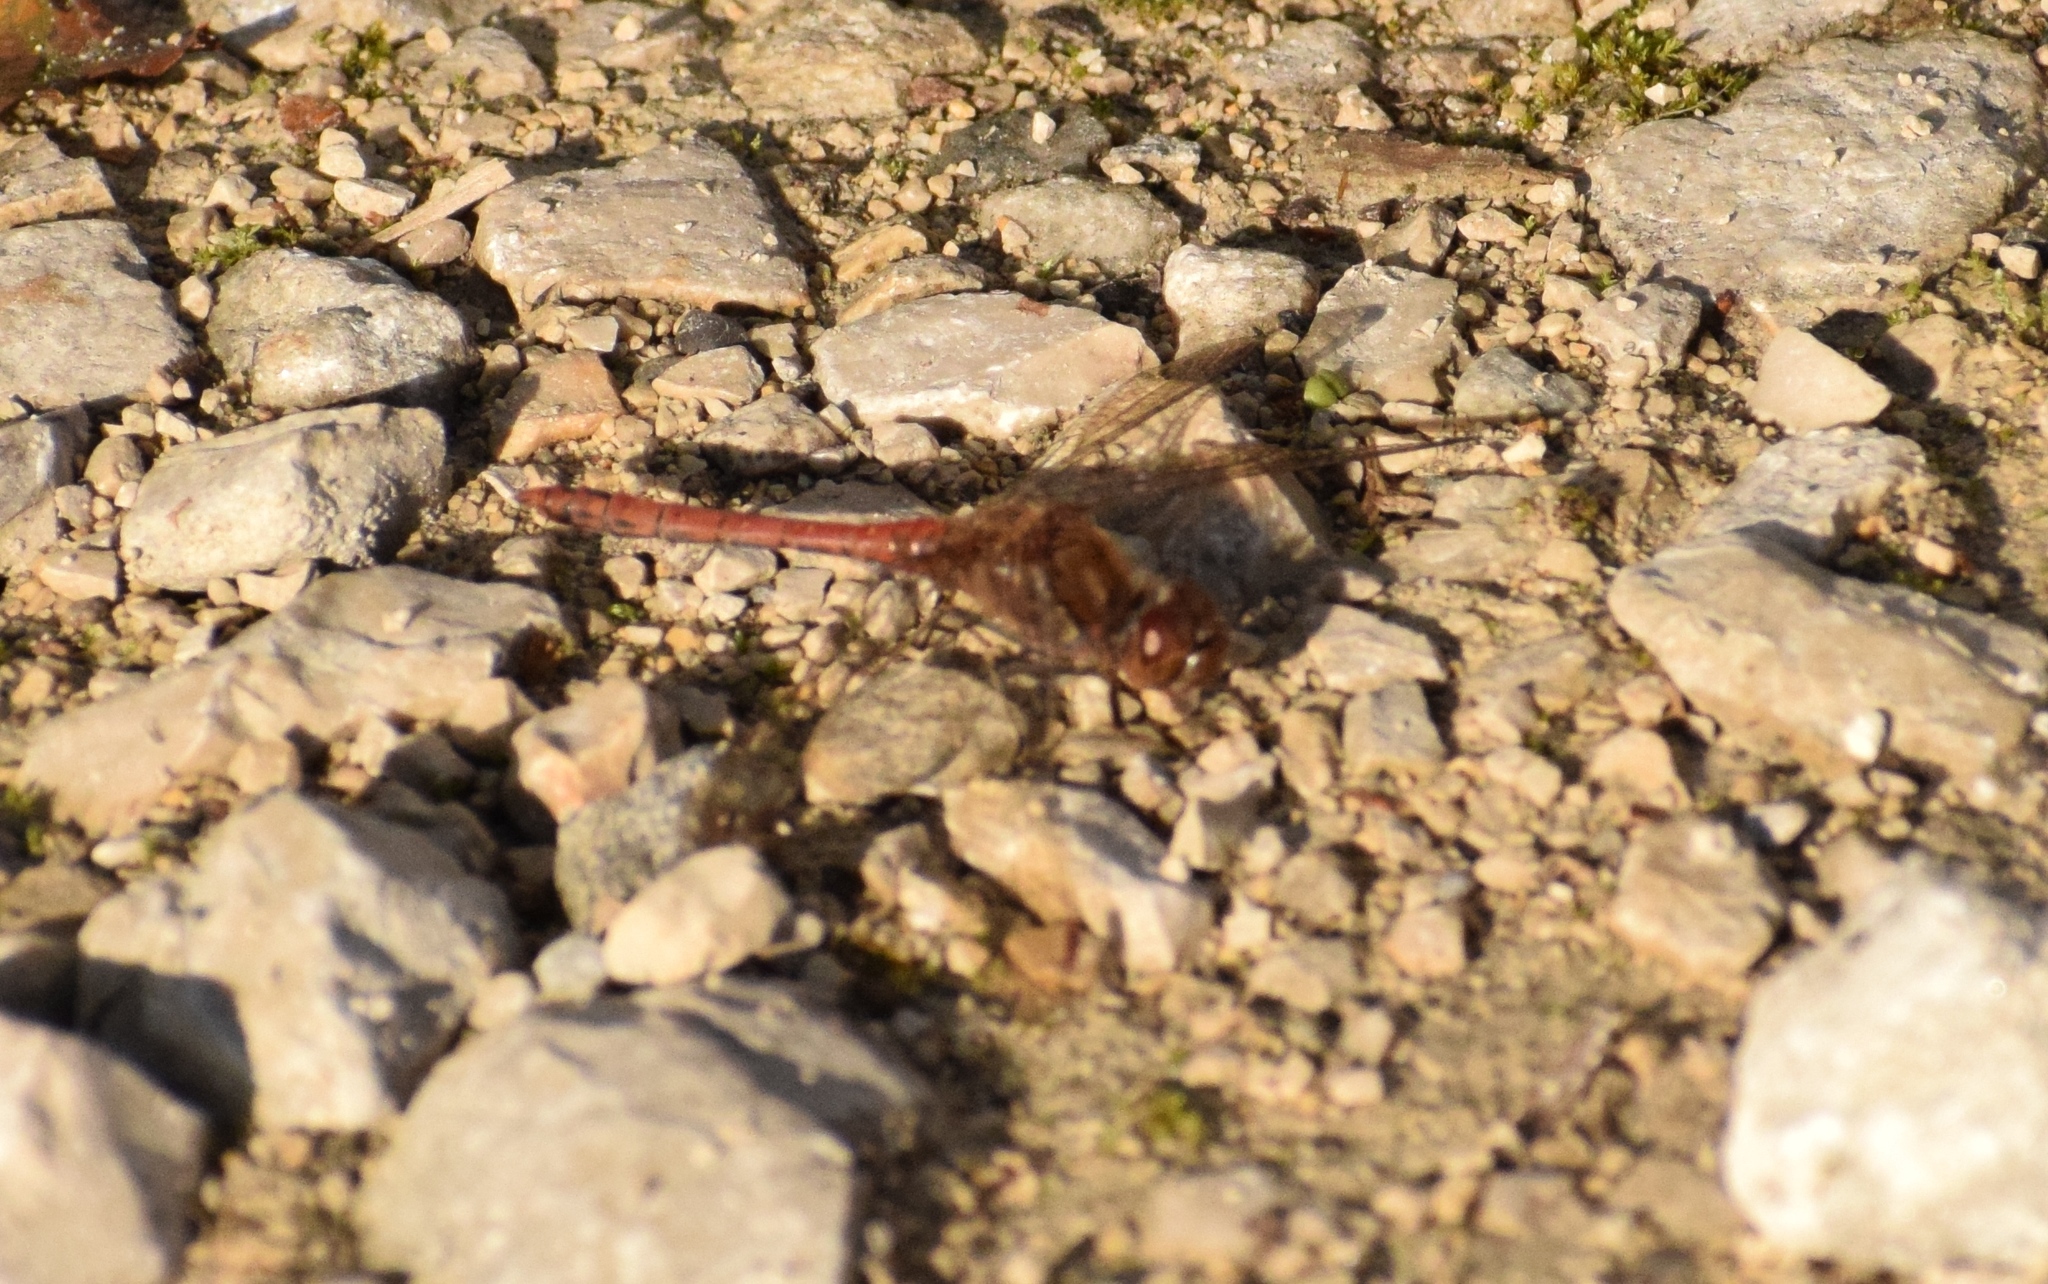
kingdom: Animalia
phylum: Arthropoda
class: Insecta
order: Odonata
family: Libellulidae
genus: Sympetrum
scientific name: Sympetrum striolatum
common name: Common darter
